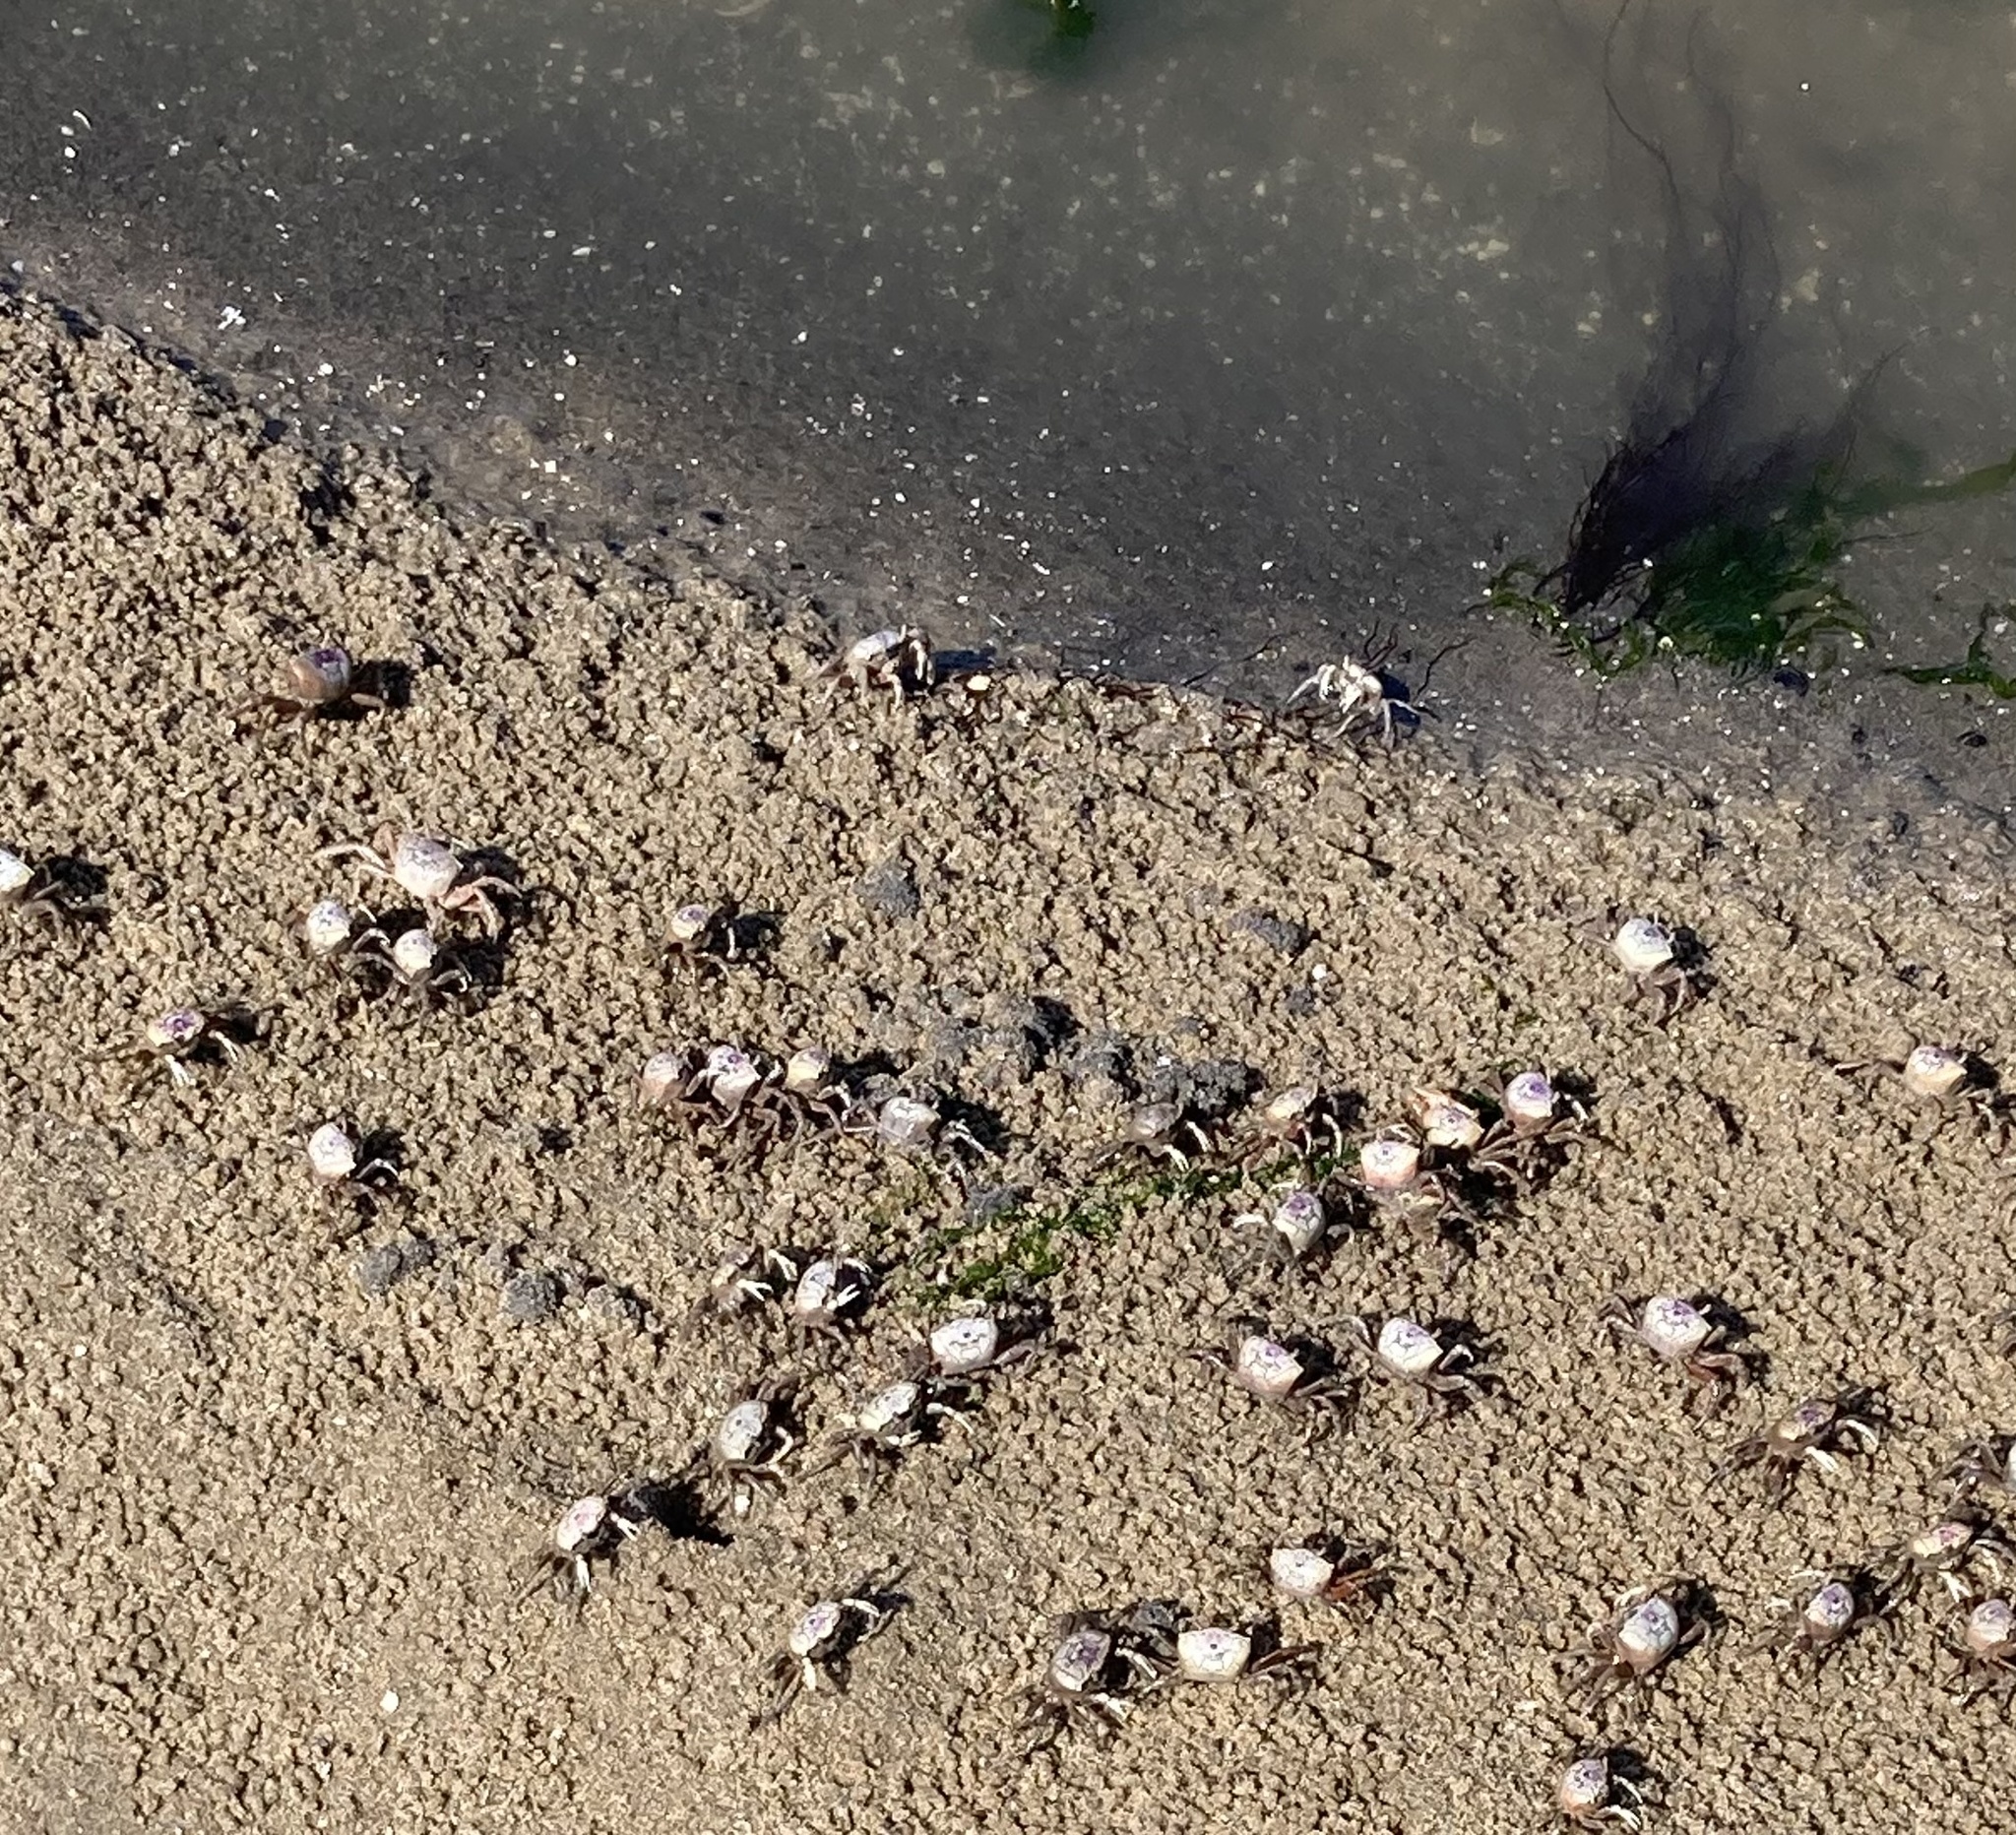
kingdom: Animalia
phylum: Arthropoda
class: Malacostraca
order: Decapoda
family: Ocypodidae
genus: Leptuca
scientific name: Leptuca pugilator
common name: Atlantic sand fiddler crab
